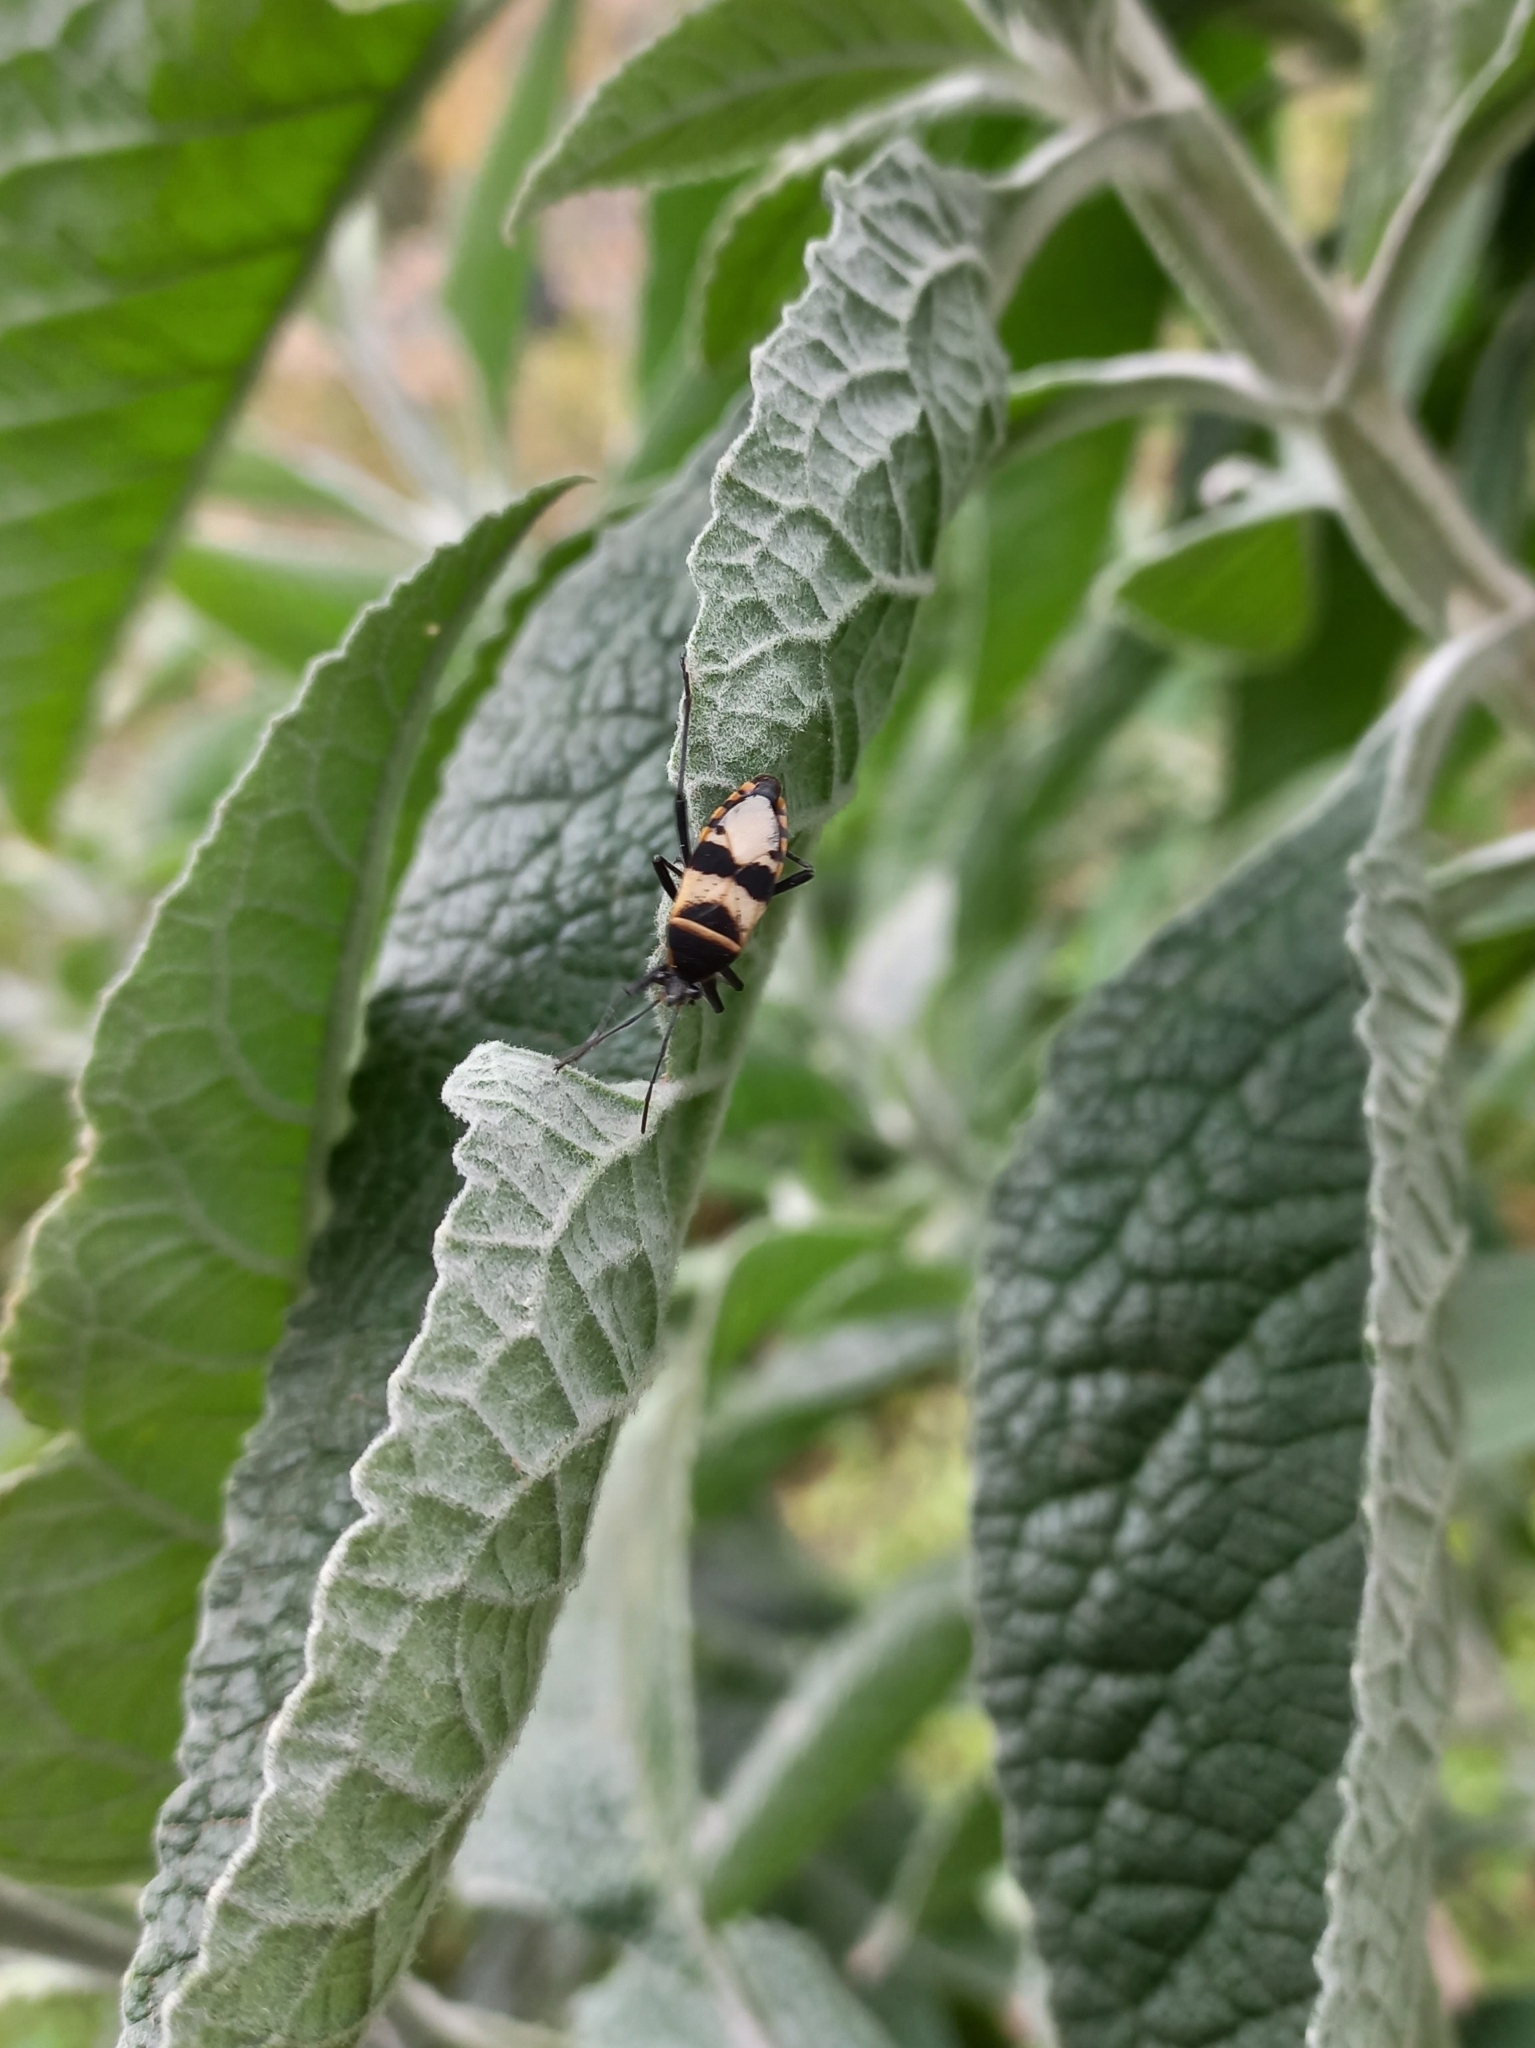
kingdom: Animalia
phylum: Arthropoda
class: Insecta
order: Hemiptera
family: Largidae
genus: Largus
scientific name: Largus fasciatus
